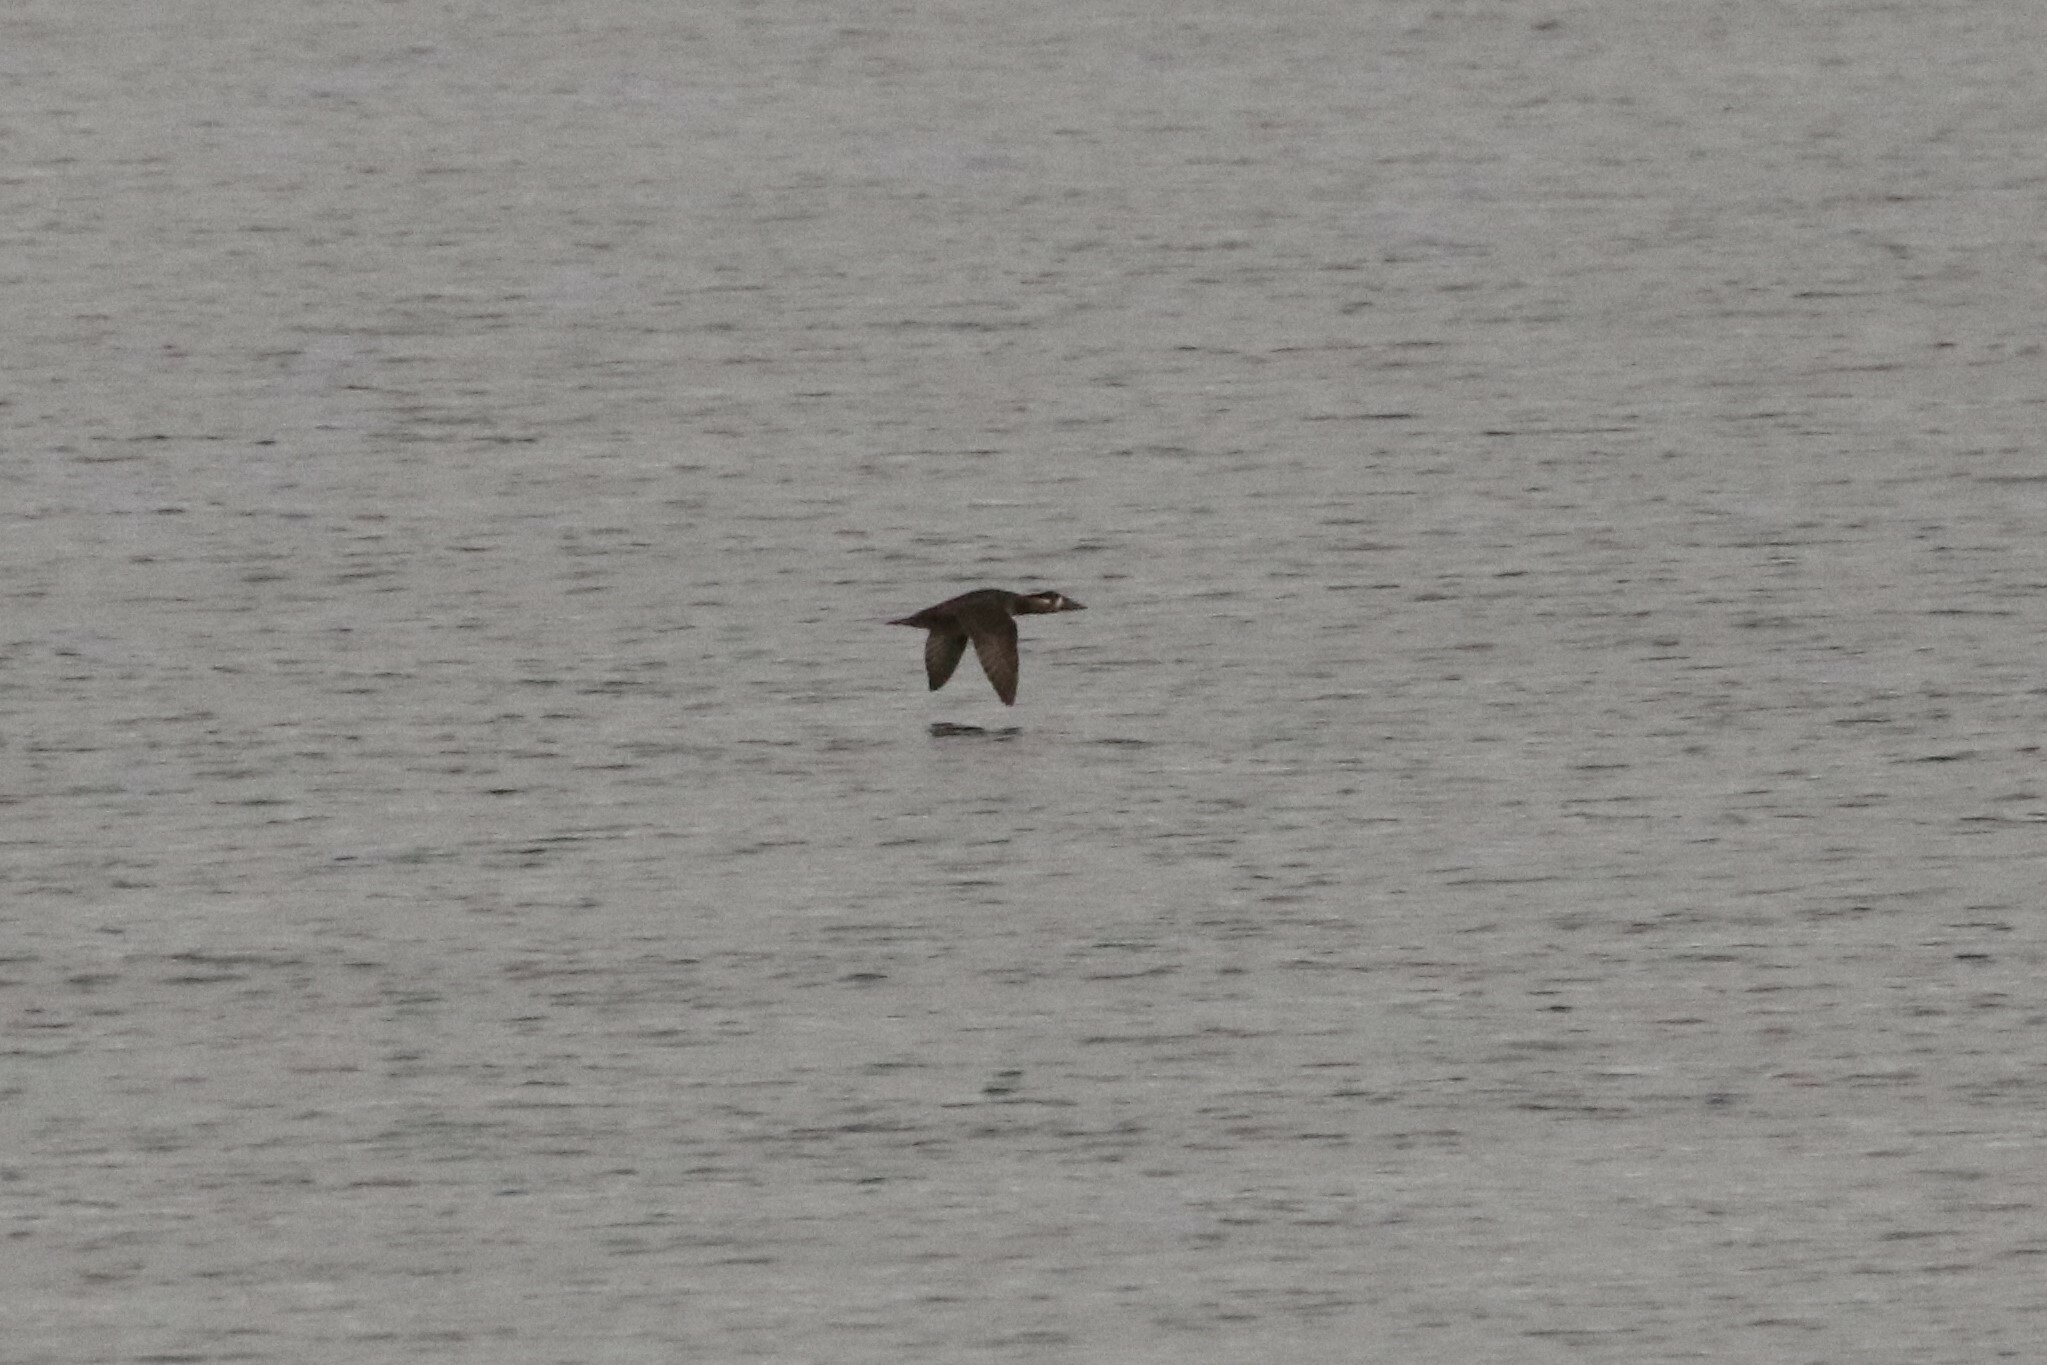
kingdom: Animalia
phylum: Chordata
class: Aves
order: Anseriformes
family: Anatidae
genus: Melanitta
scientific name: Melanitta perspicillata
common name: Surf scoter
